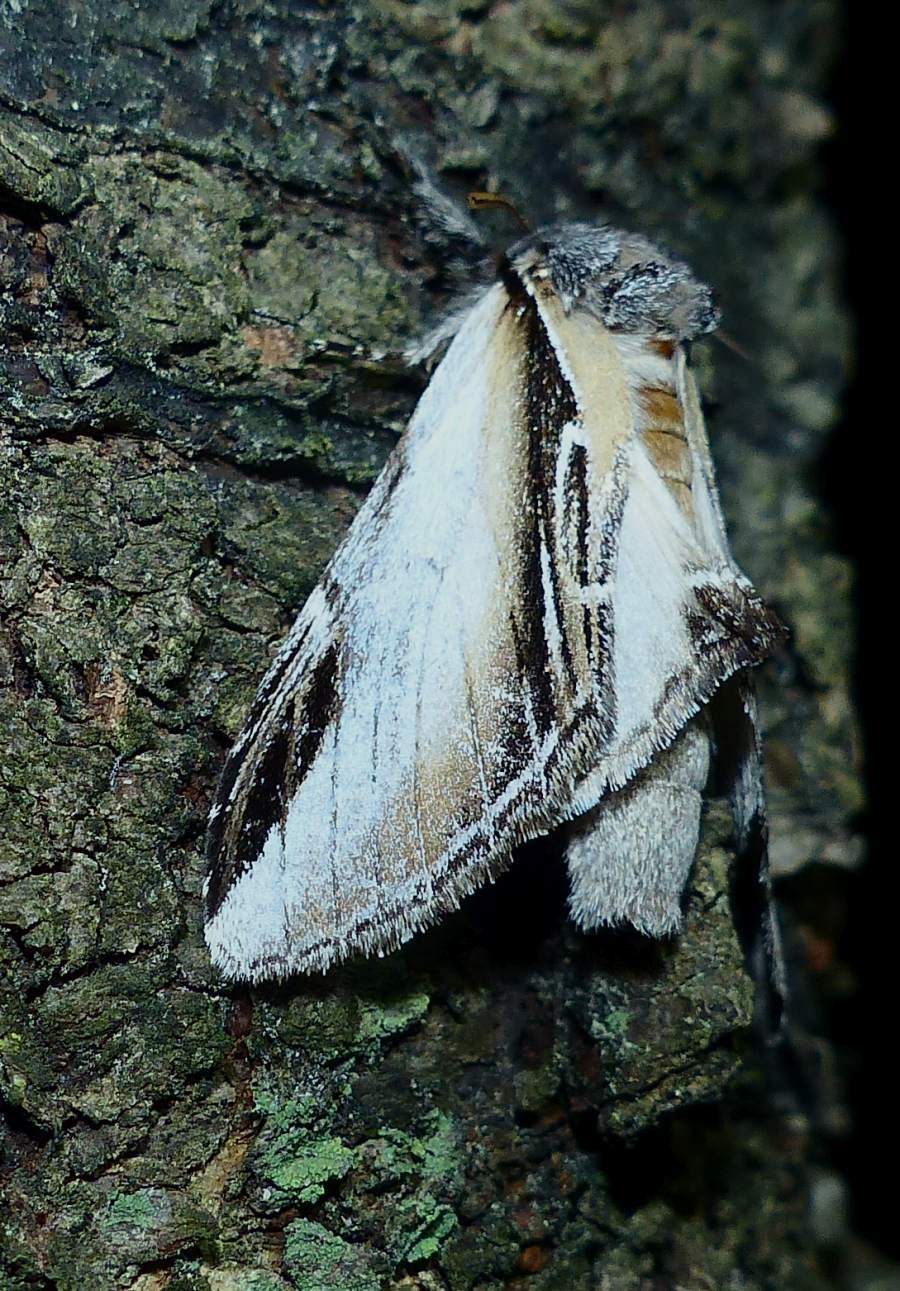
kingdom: Animalia
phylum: Arthropoda
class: Insecta
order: Lepidoptera
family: Notodontidae
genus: Pheosia
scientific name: Pheosia rimosa
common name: Black-rimmed prominent
